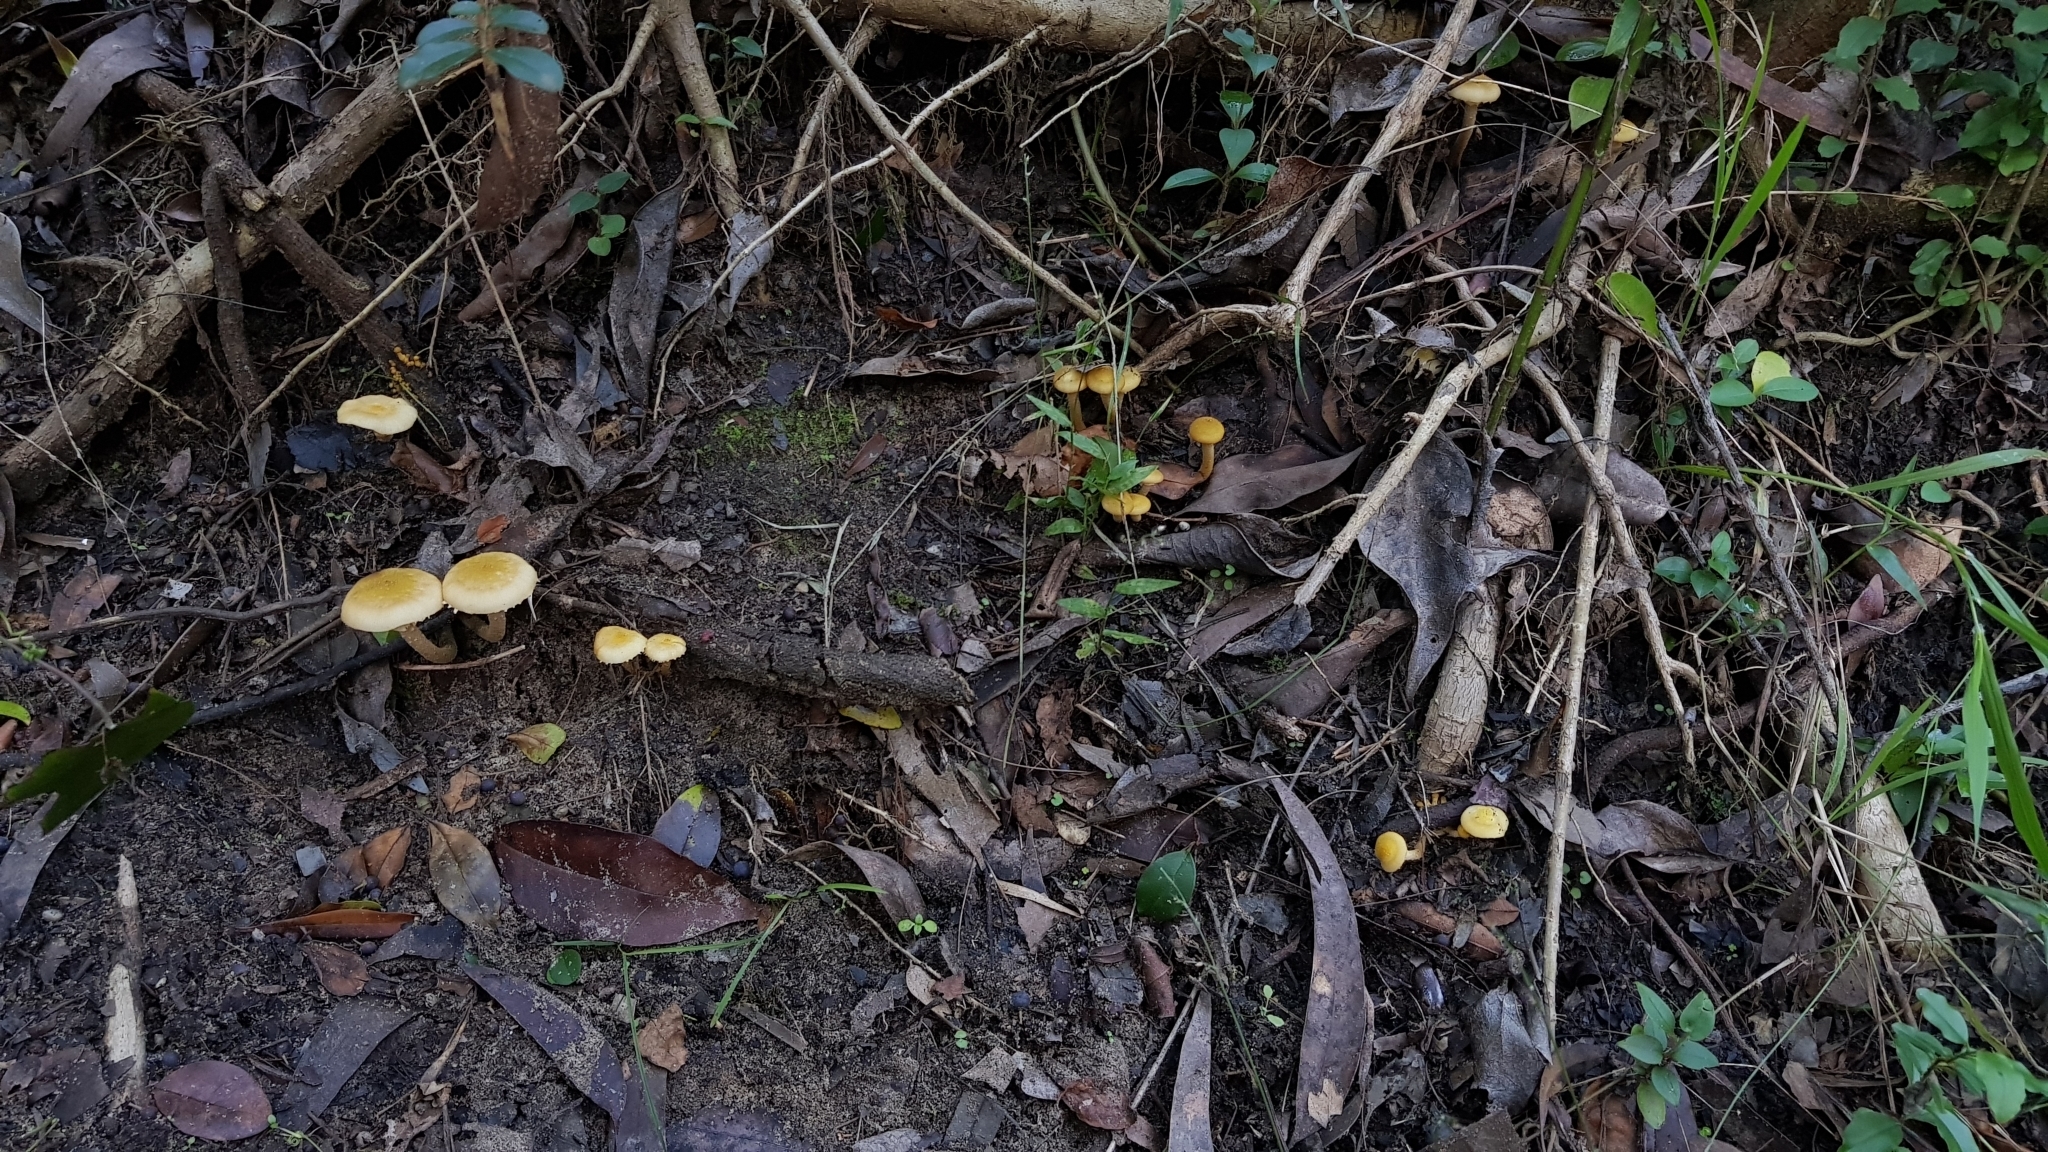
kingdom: Fungi
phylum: Basidiomycota
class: Agaricomycetes
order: Agaricales
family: Physalacriaceae
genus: Armillaria
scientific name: Armillaria luteobubalina
